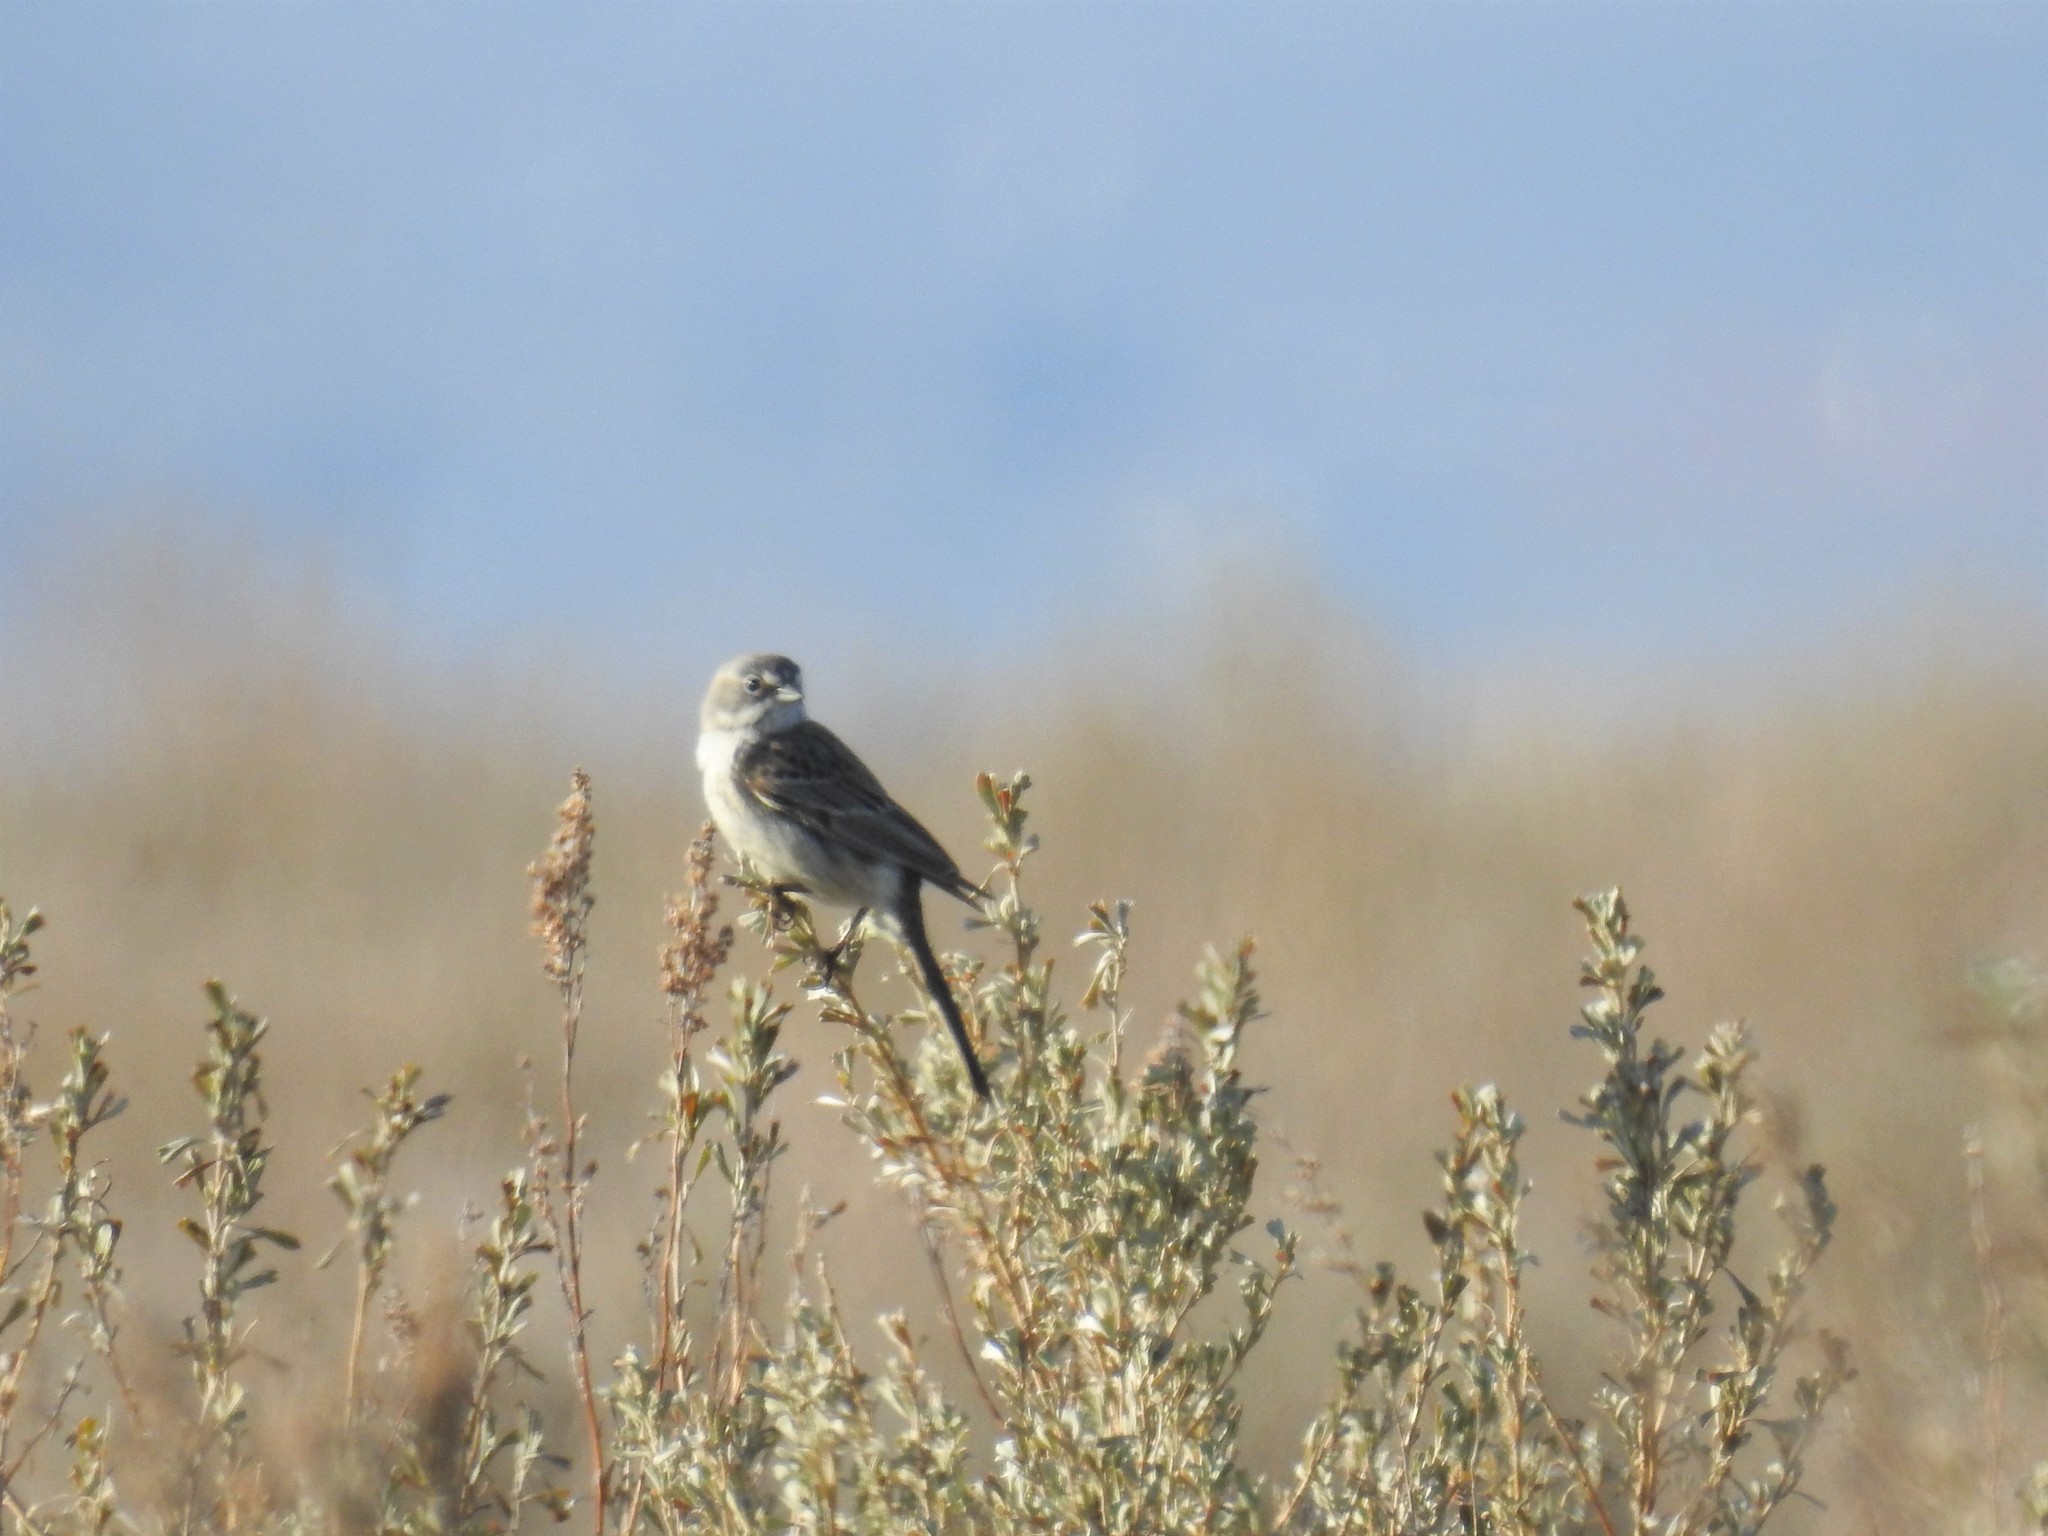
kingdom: Animalia
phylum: Chordata
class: Aves
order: Passeriformes
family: Passerellidae
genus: Artemisiospiza
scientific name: Artemisiospiza nevadensis
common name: Sagebrush sparrow
